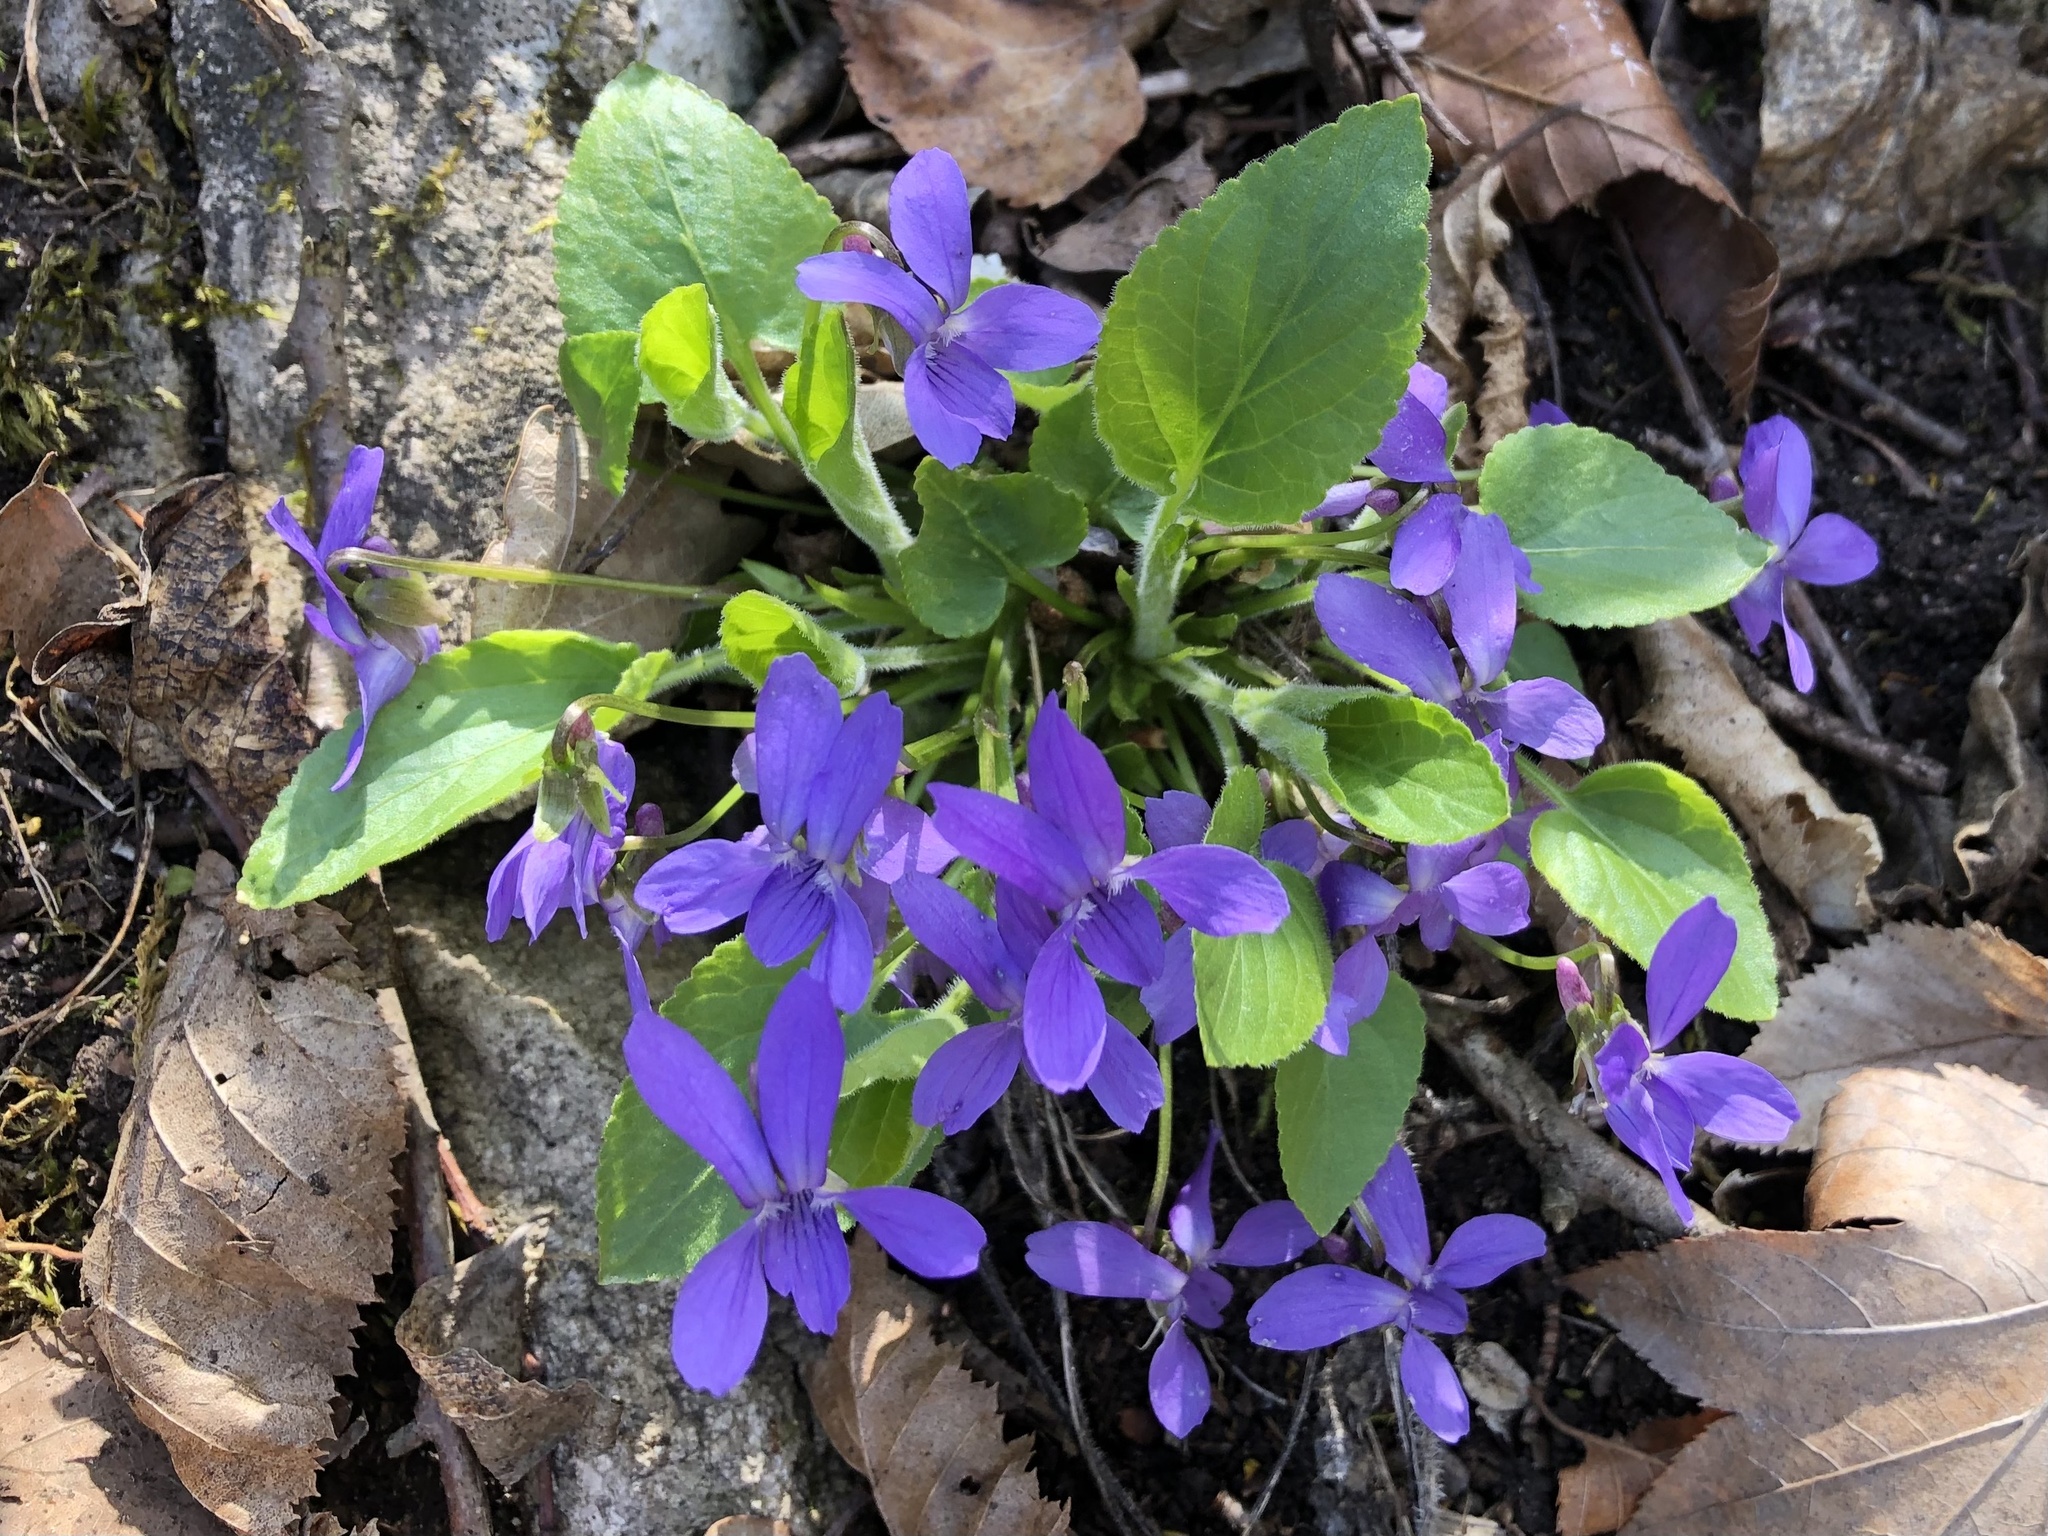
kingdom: Plantae
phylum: Tracheophyta
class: Magnoliopsida
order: Malpighiales
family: Violaceae
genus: Viola
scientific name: Viola hirta
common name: Hairy violet
